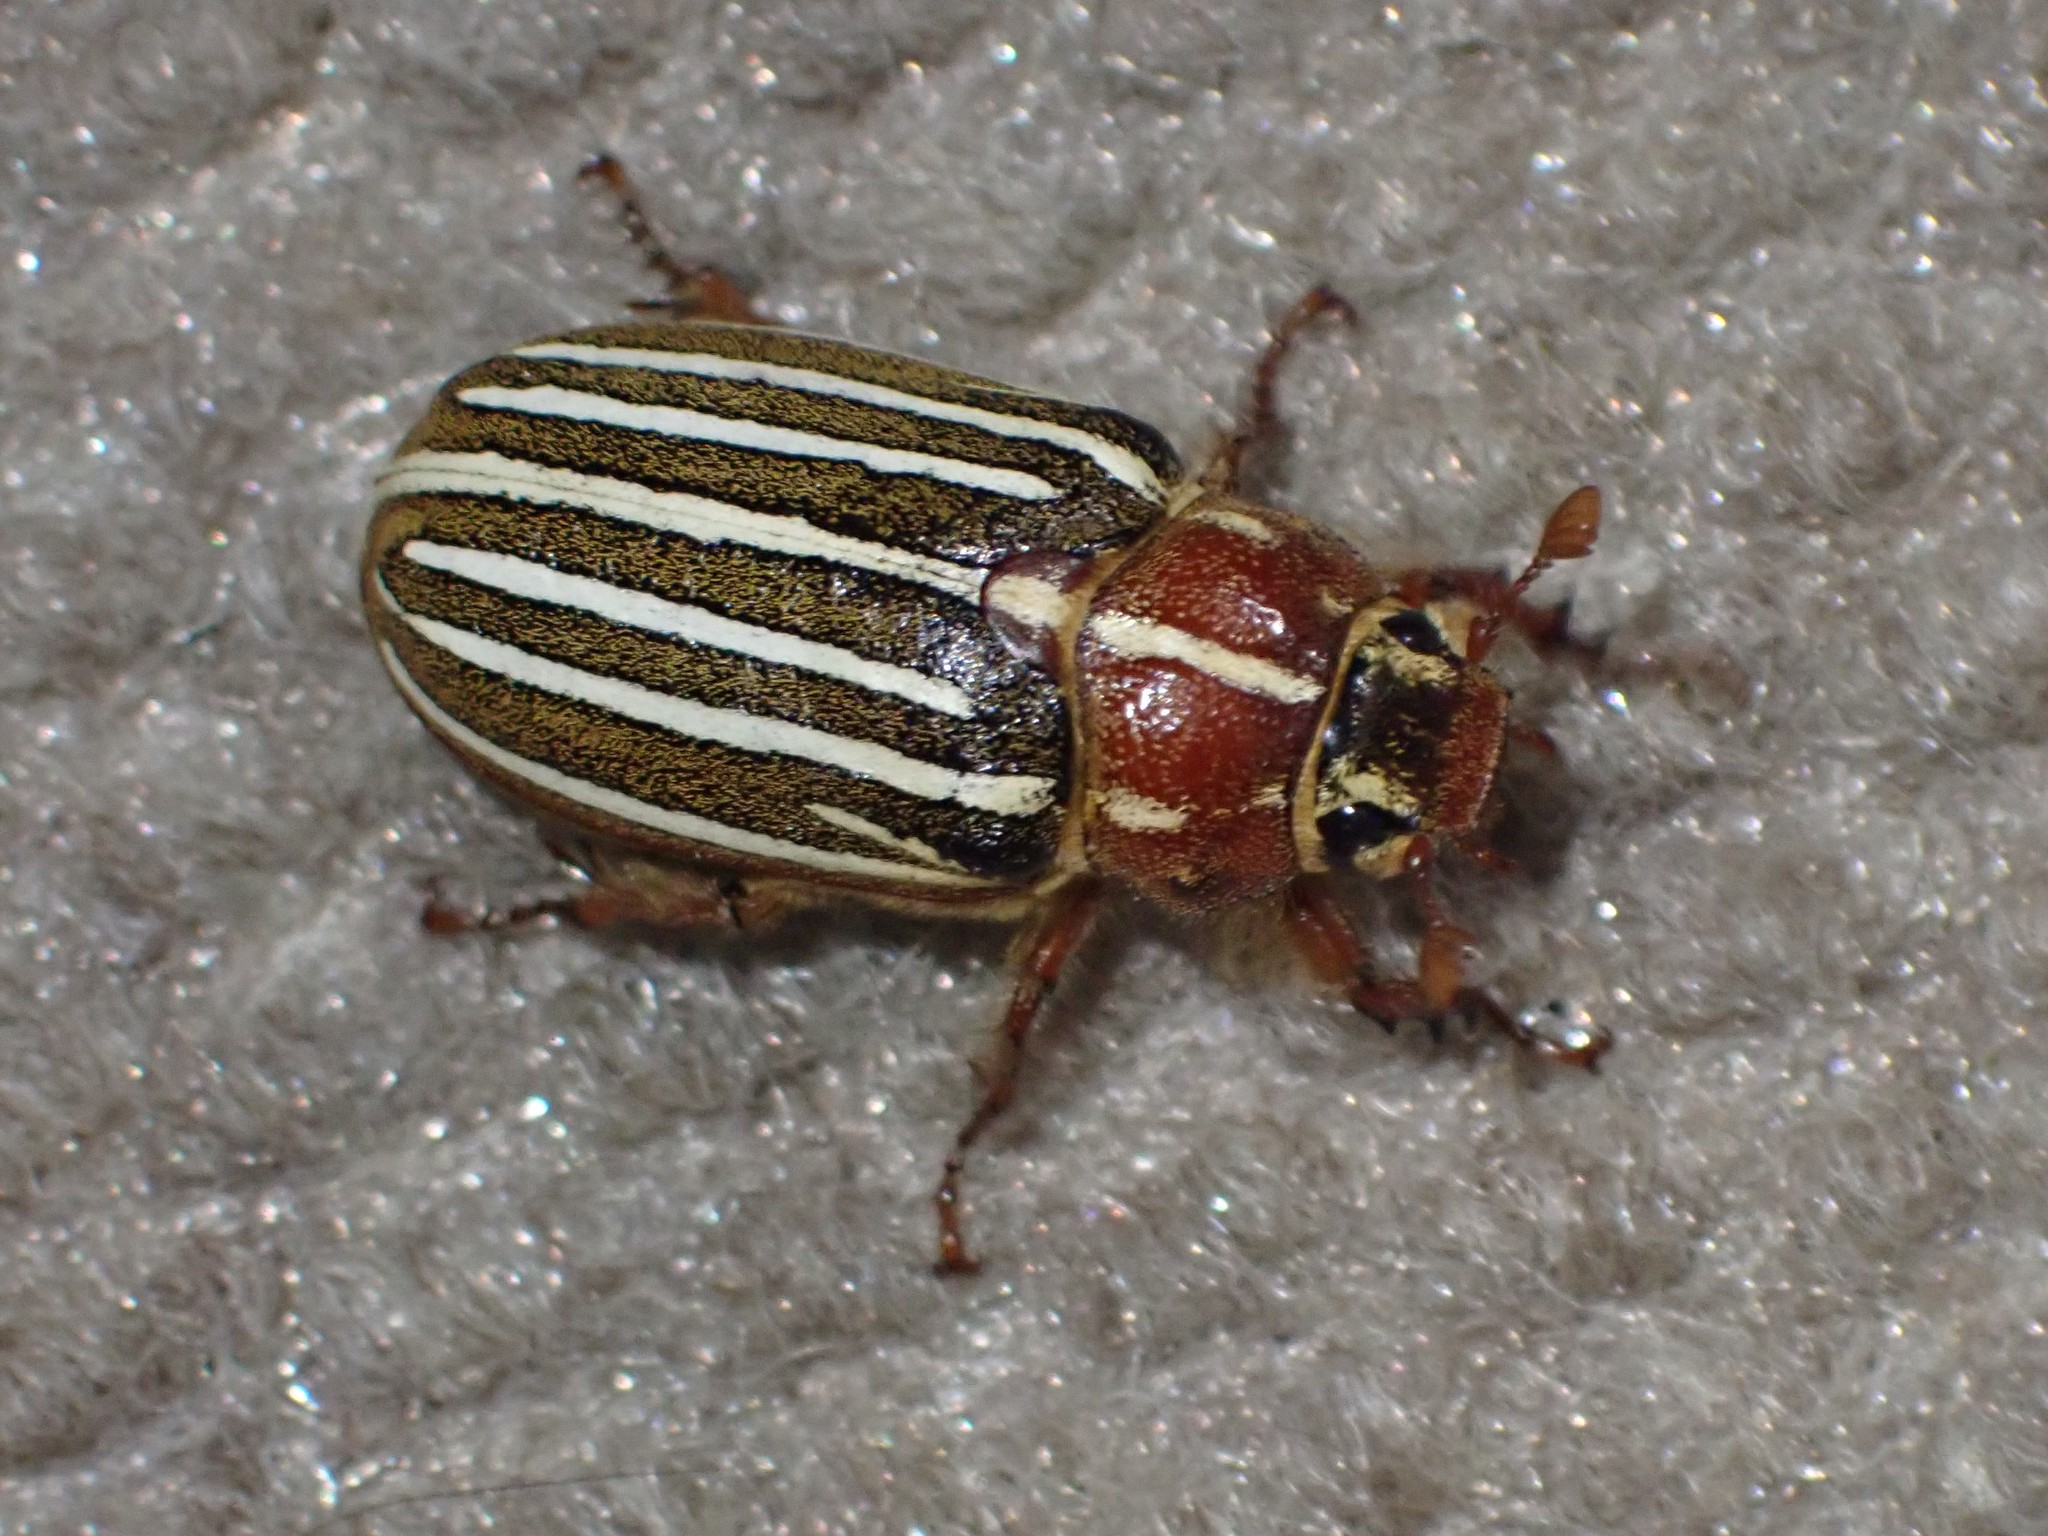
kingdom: Animalia
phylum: Arthropoda
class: Insecta
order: Coleoptera
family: Scarabaeidae
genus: Polyphylla
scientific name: Polyphylla crinita
